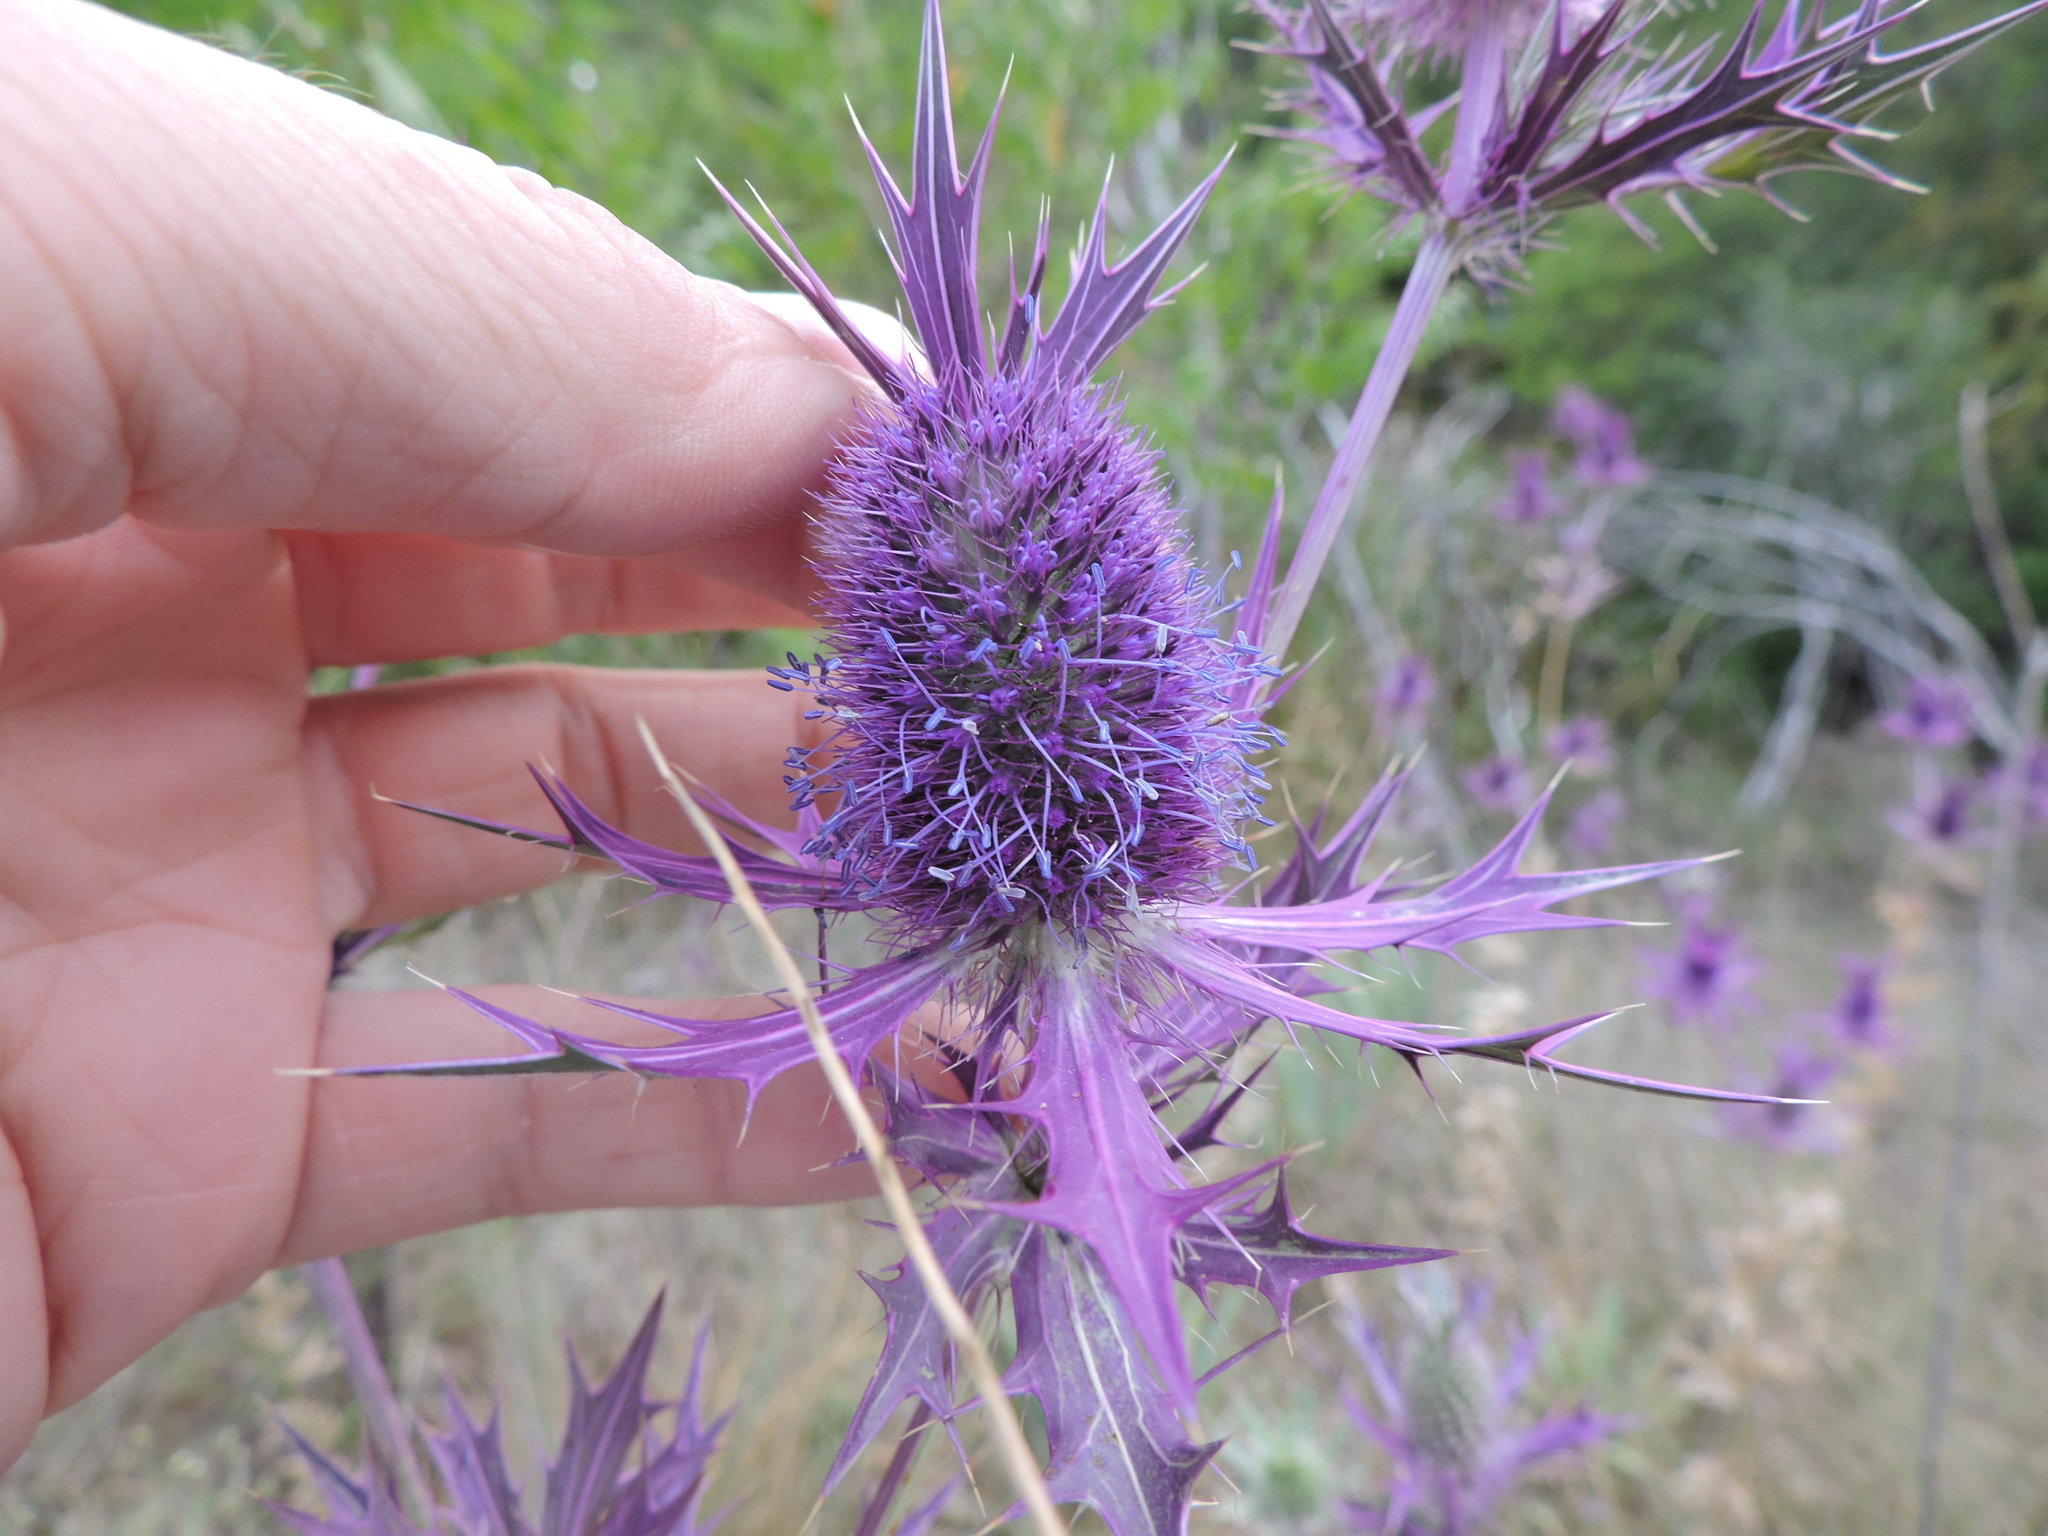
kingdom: Plantae
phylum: Tracheophyta
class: Magnoliopsida
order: Apiales
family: Apiaceae
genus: Eryngium
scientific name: Eryngium leavenworthii
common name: Leavenworth's eryngo
